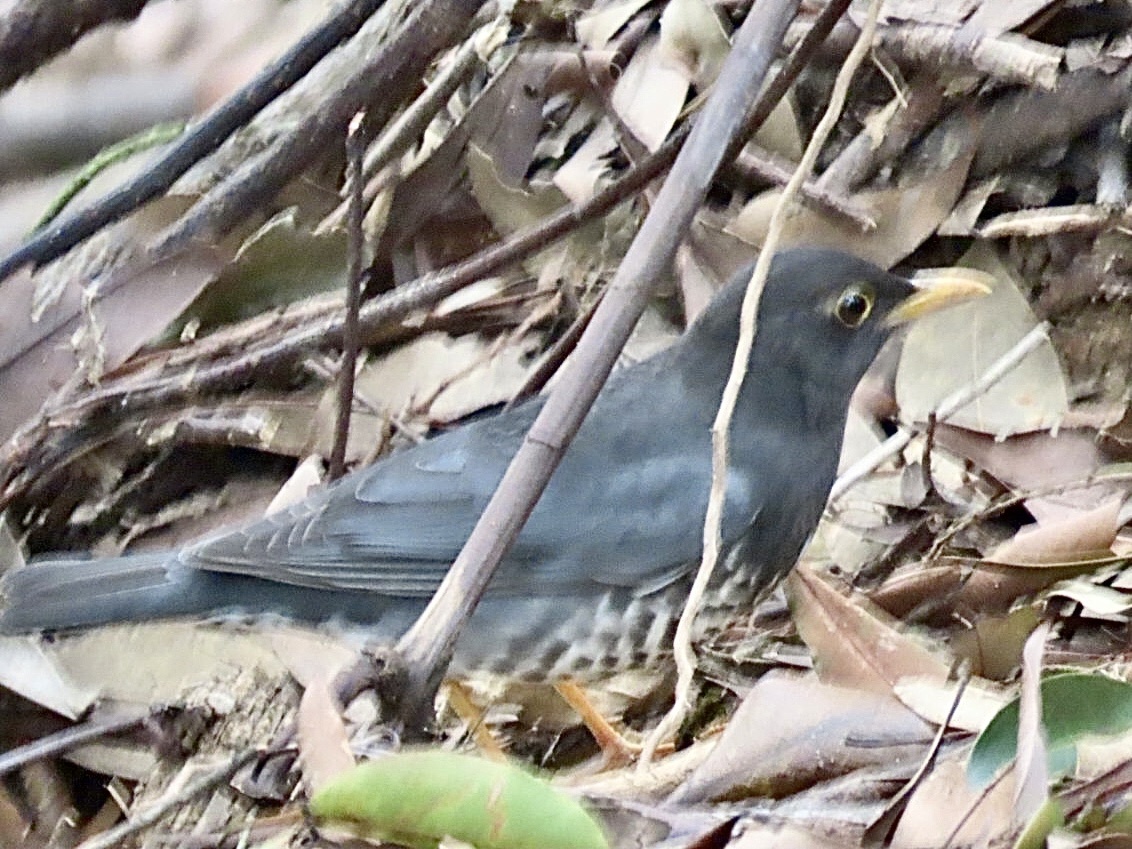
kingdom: Animalia
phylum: Chordata
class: Aves
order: Passeriformes
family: Turdidae
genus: Turdus
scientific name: Turdus cardis
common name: Japanese thrush
